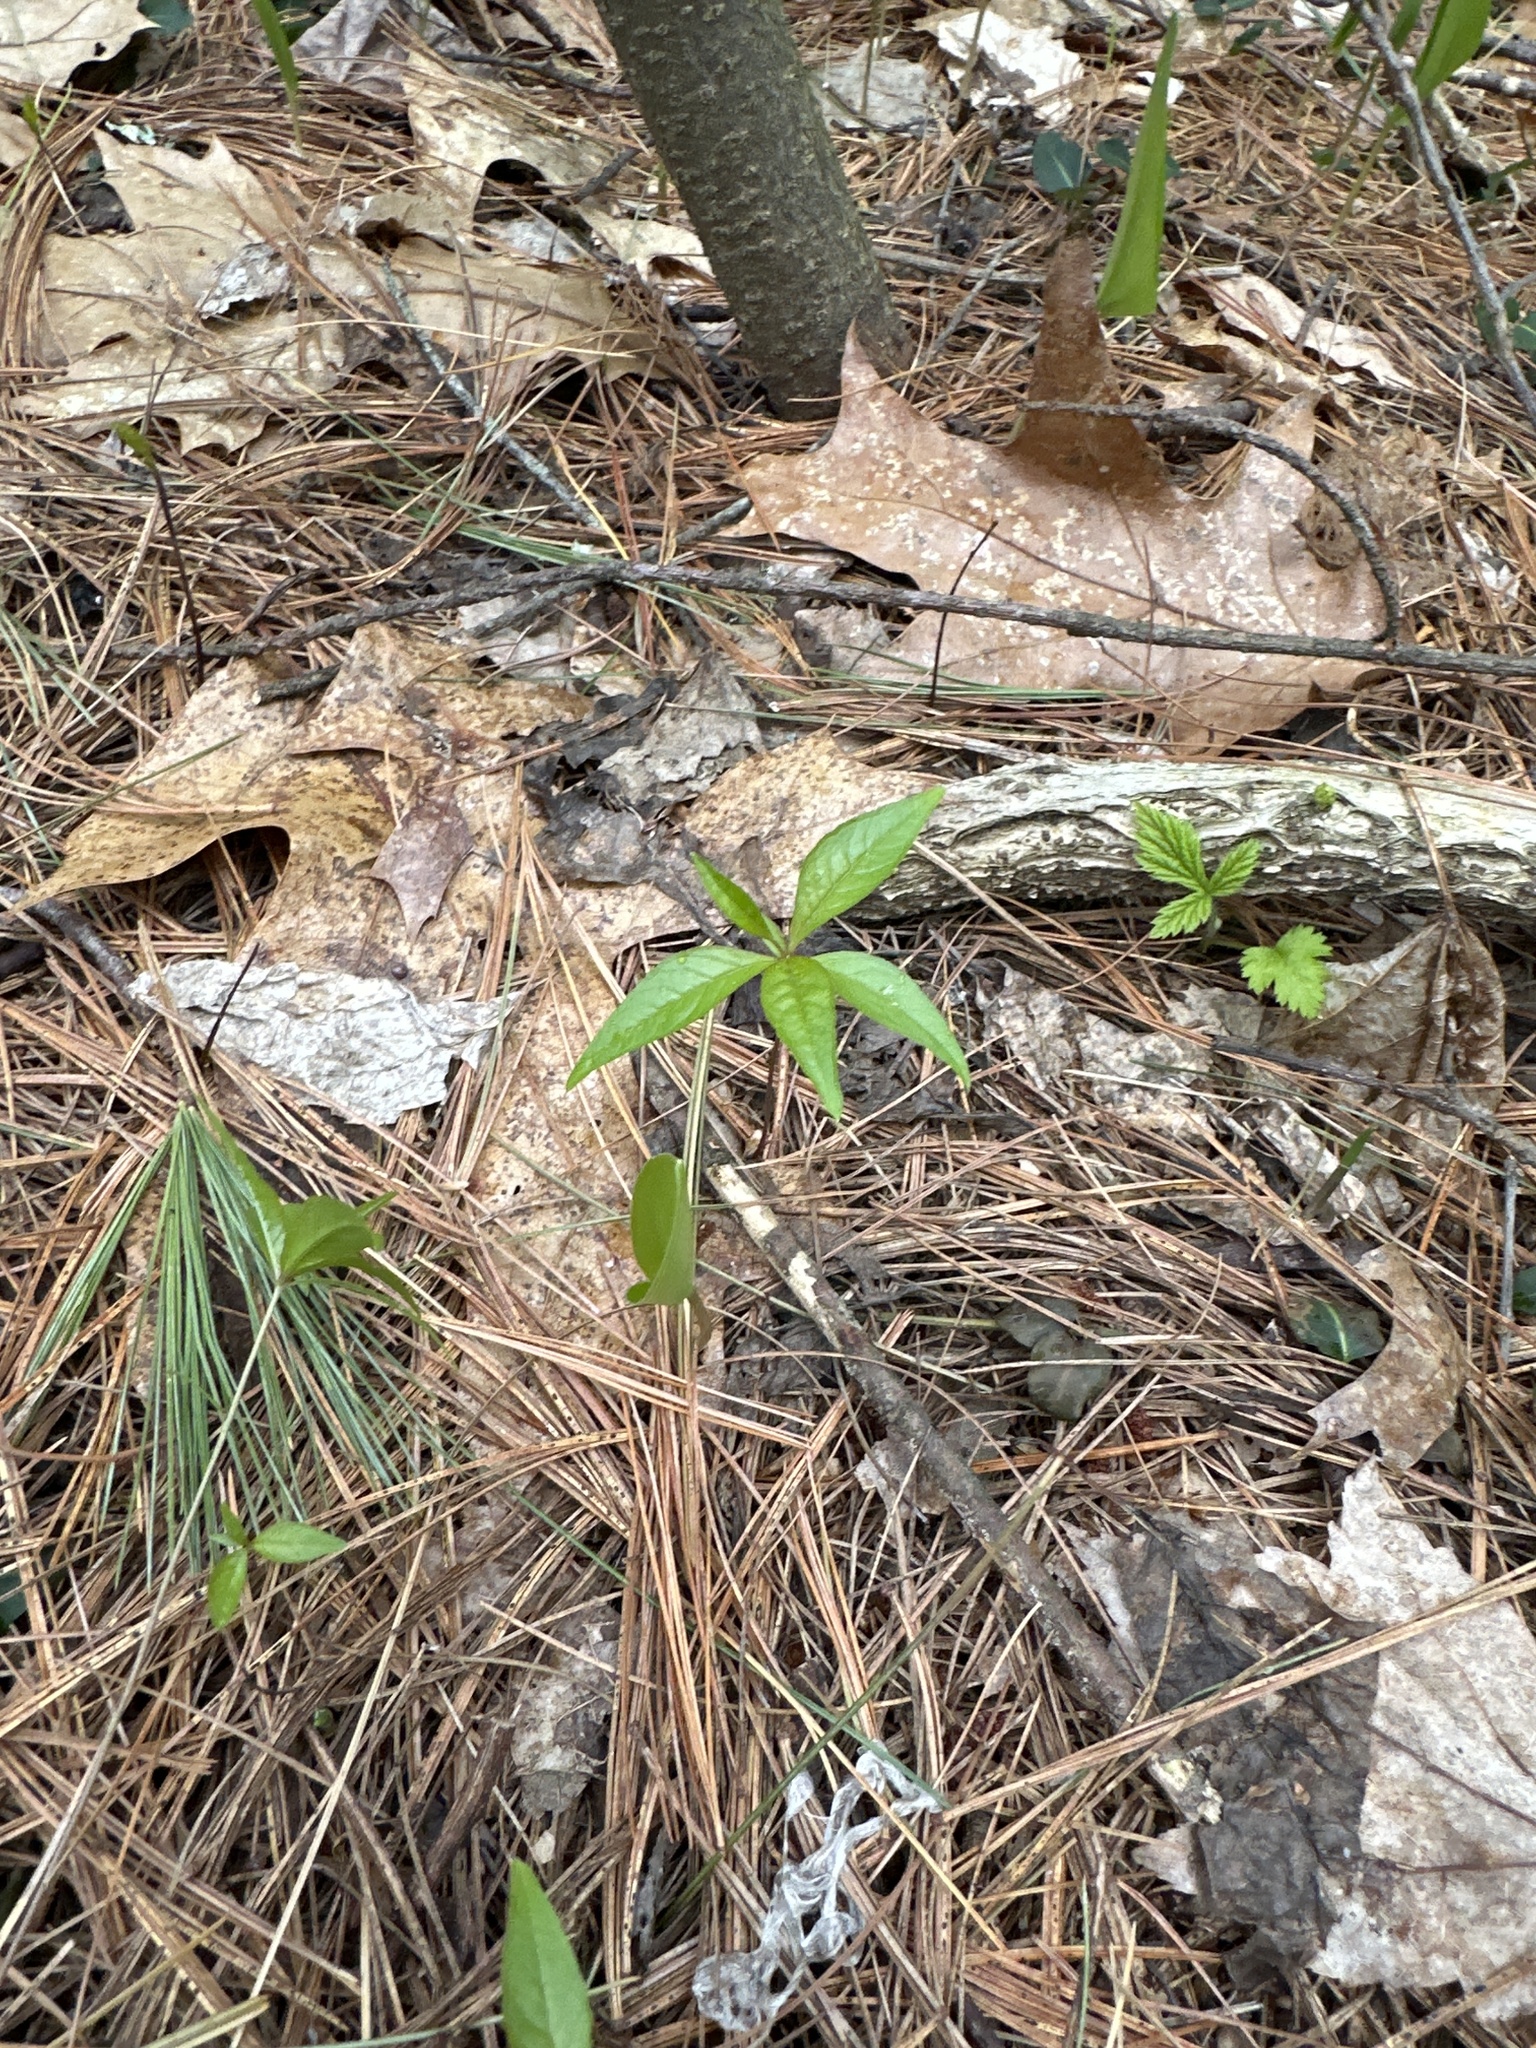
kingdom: Plantae
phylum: Tracheophyta
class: Magnoliopsida
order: Ericales
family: Primulaceae
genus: Lysimachia
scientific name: Lysimachia borealis
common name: American starflower
